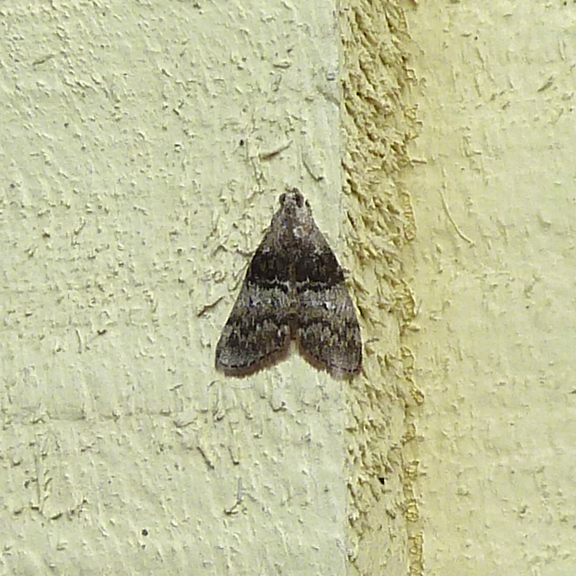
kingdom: Animalia
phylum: Arthropoda
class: Insecta
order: Lepidoptera
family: Pyralidae
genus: Pococera
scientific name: Pococera asperatella
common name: Maple webworm moth
